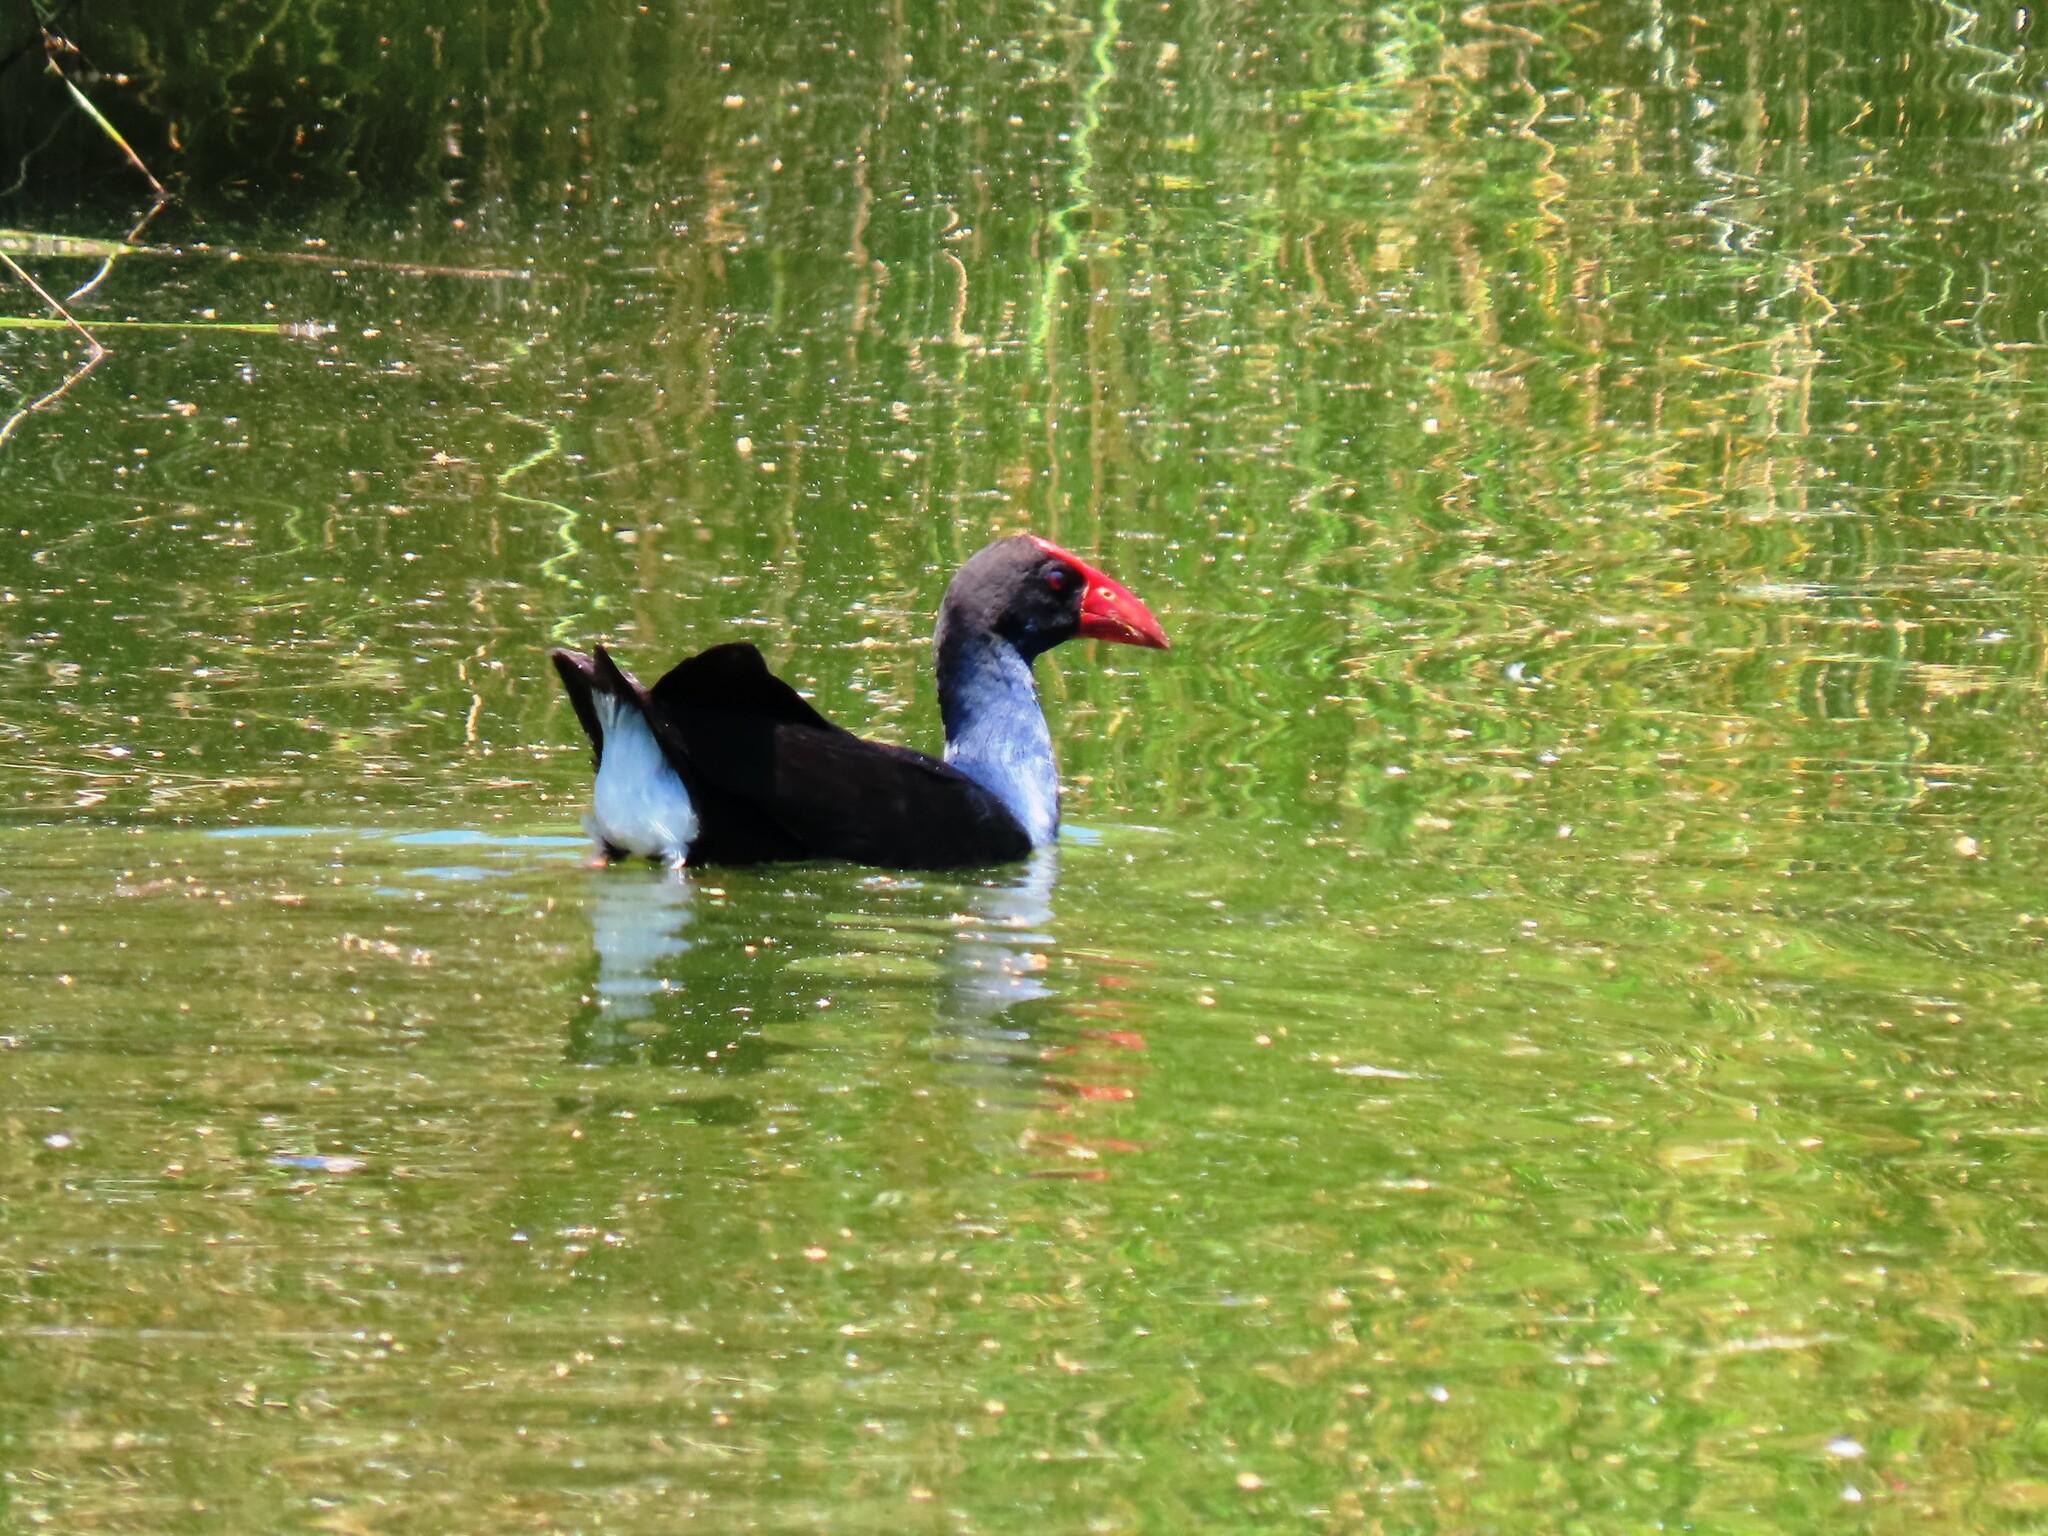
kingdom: Animalia
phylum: Chordata
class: Aves
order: Gruiformes
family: Rallidae
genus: Porphyrio
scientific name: Porphyrio melanotus
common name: Australasian swamphen
